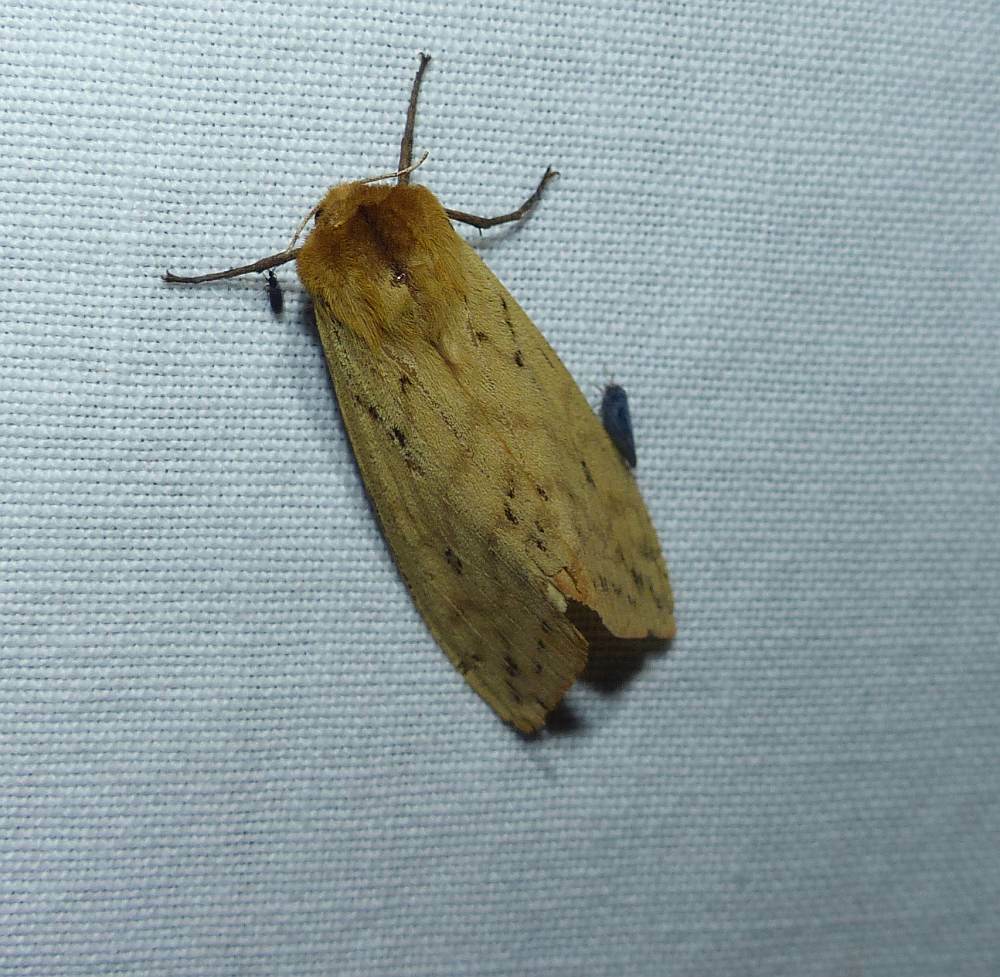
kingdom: Animalia
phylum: Arthropoda
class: Insecta
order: Lepidoptera
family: Erebidae
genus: Pyrrharctia
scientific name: Pyrrharctia isabella
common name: Isabella tiger moth
